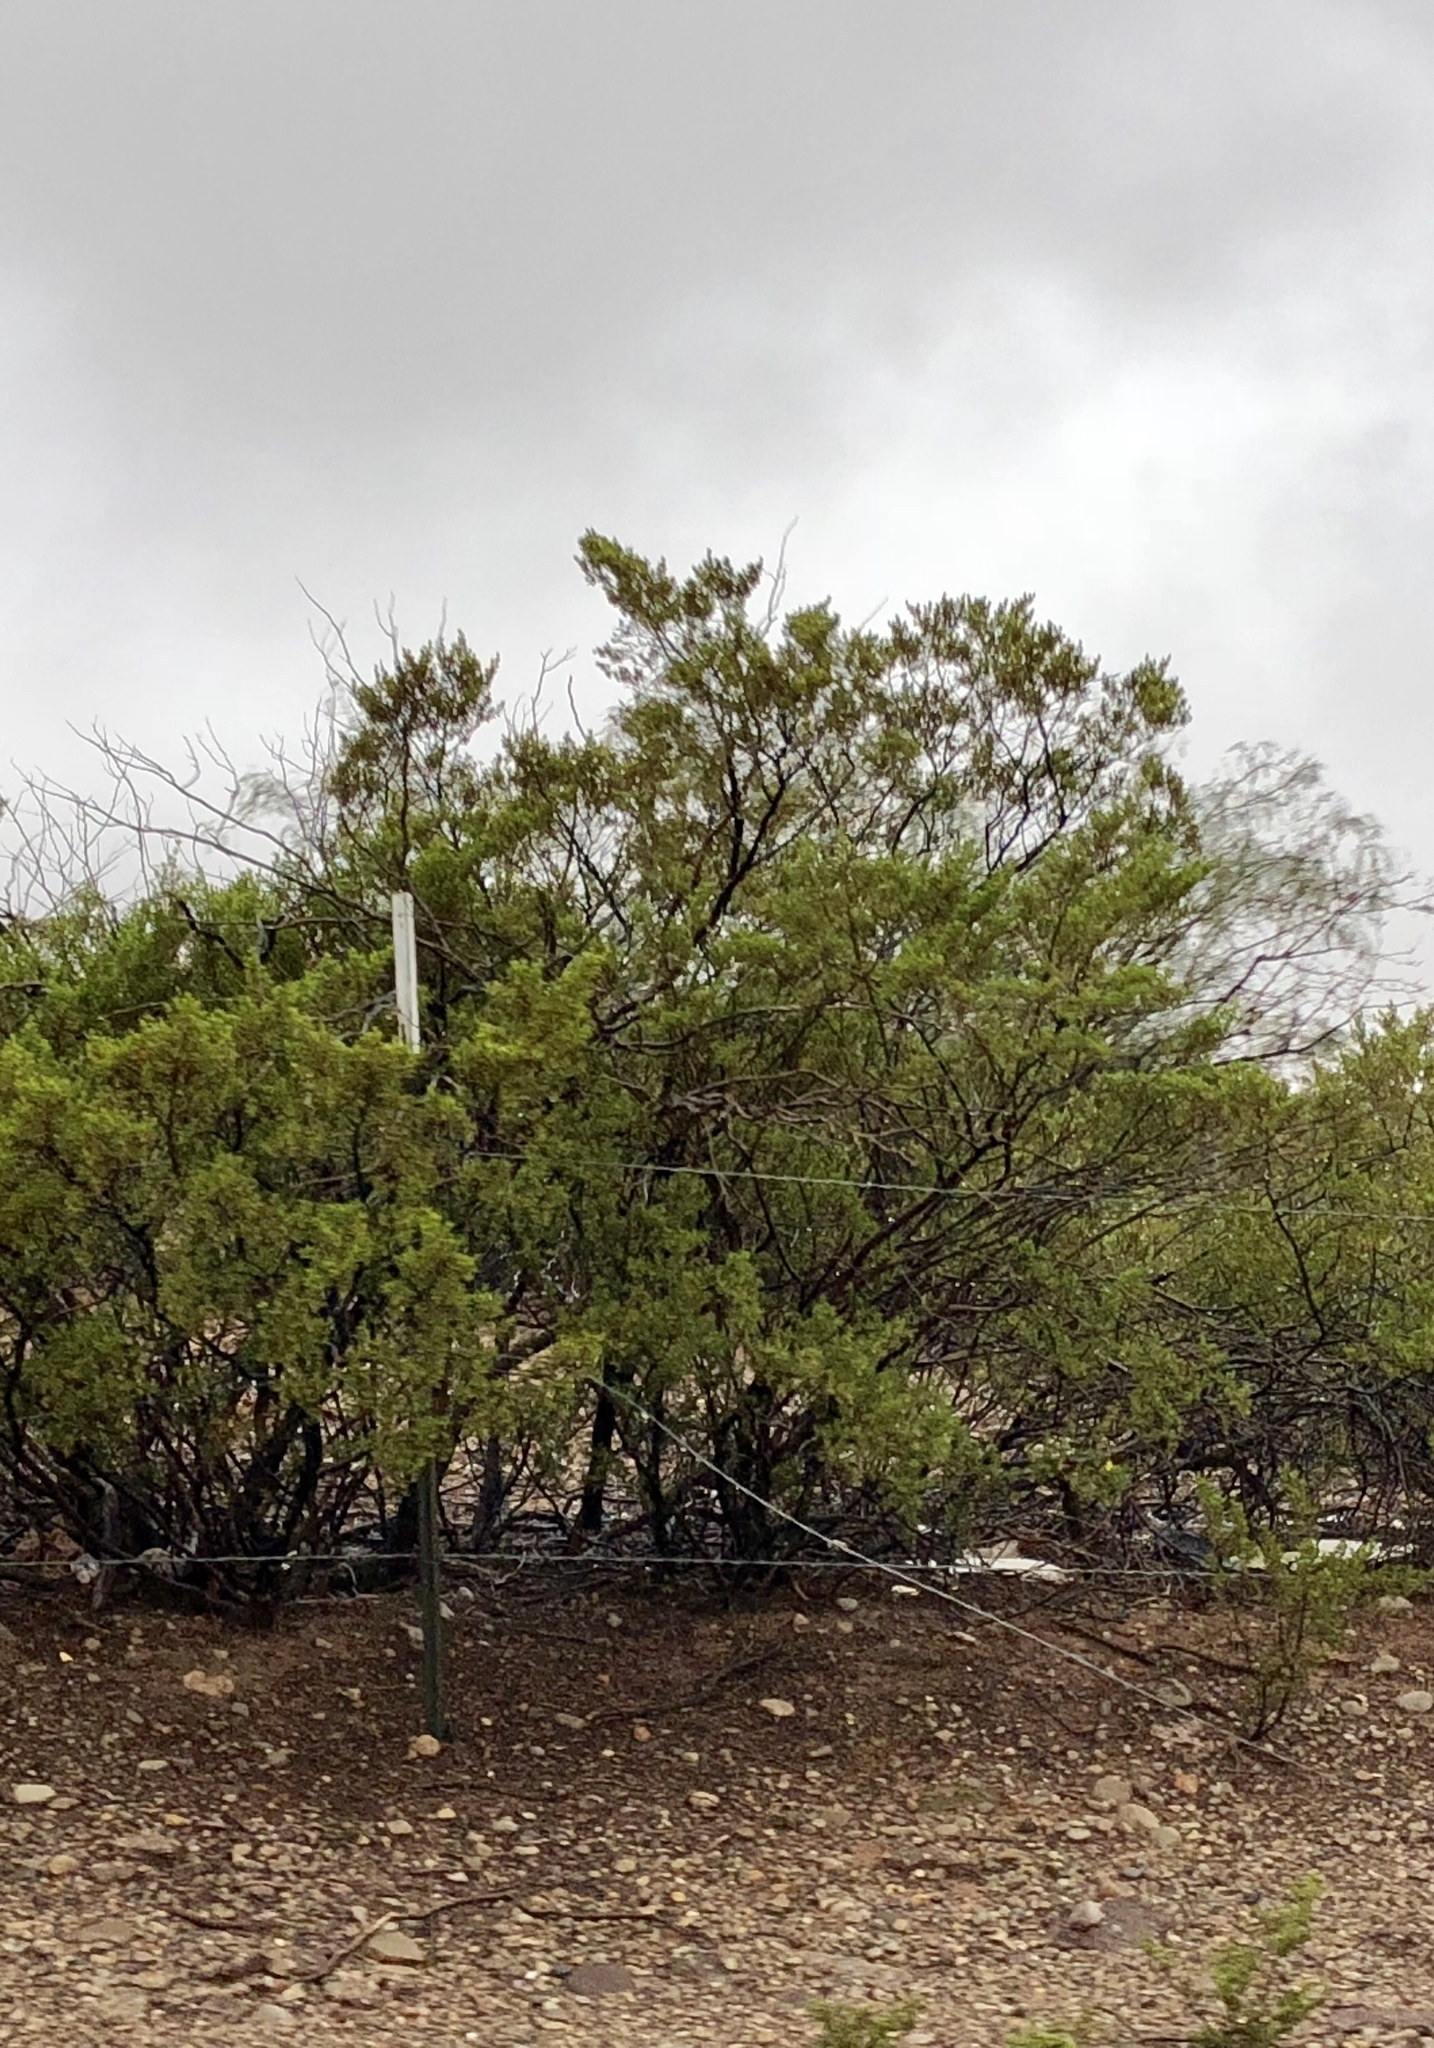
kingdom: Plantae
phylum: Tracheophyta
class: Magnoliopsida
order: Zygophyllales
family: Zygophyllaceae
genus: Larrea
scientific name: Larrea tridentata
